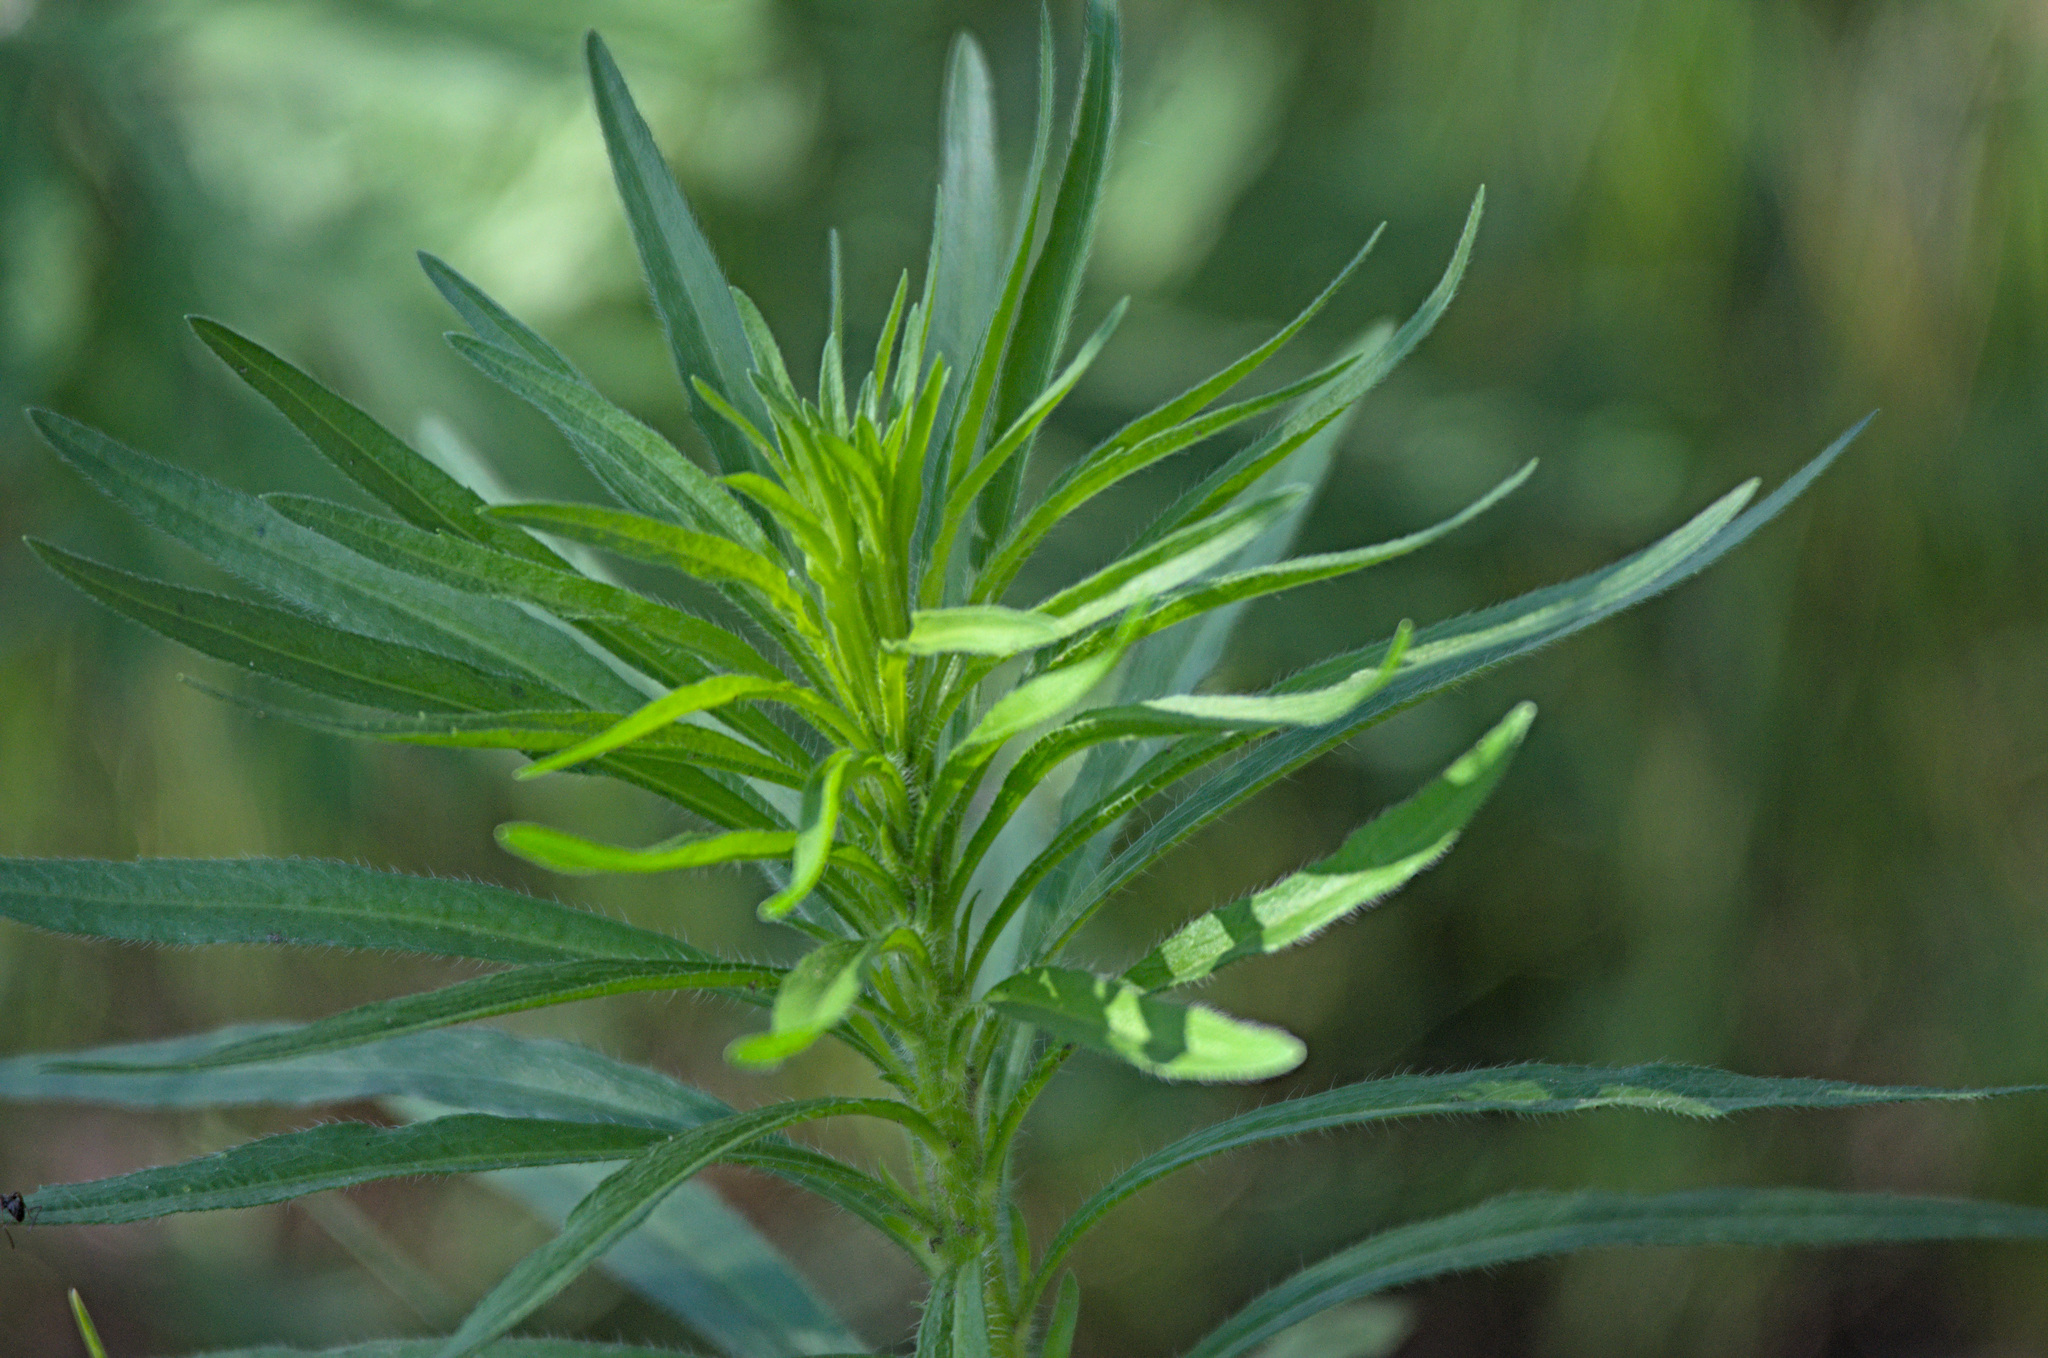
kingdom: Plantae
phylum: Tracheophyta
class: Magnoliopsida
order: Asterales
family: Asteraceae
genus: Erigeron
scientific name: Erigeron canadensis
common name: Canadian fleabane
